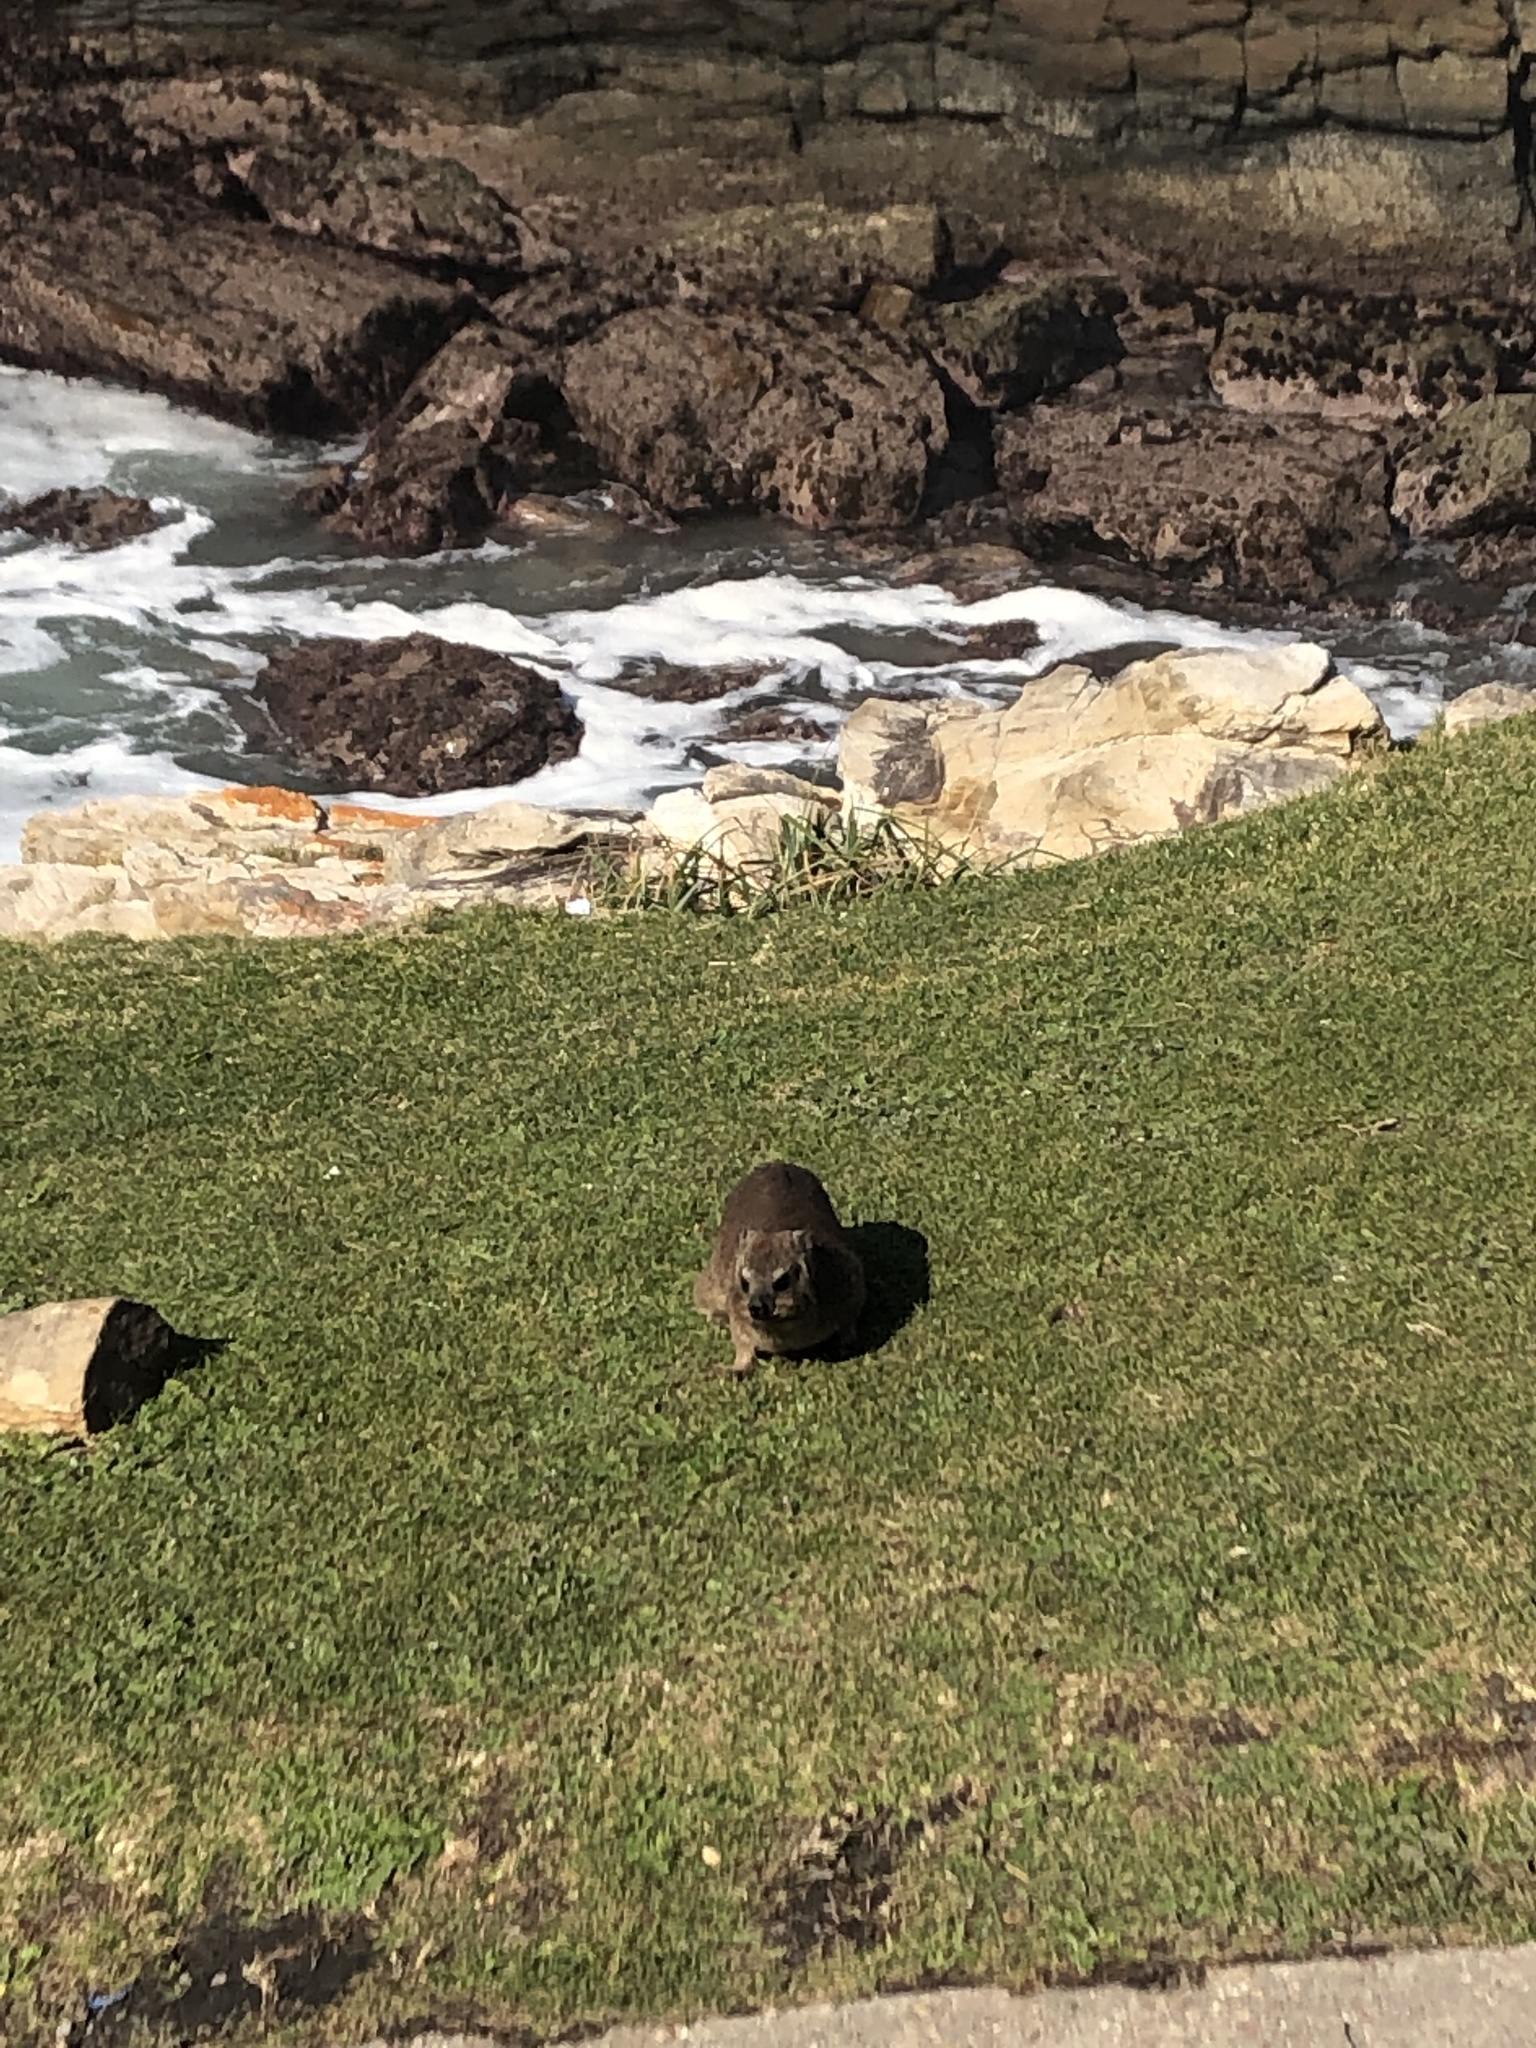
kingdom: Animalia
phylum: Chordata
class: Mammalia
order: Hyracoidea
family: Procaviidae
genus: Procavia
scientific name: Procavia capensis
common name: Rock hyrax
